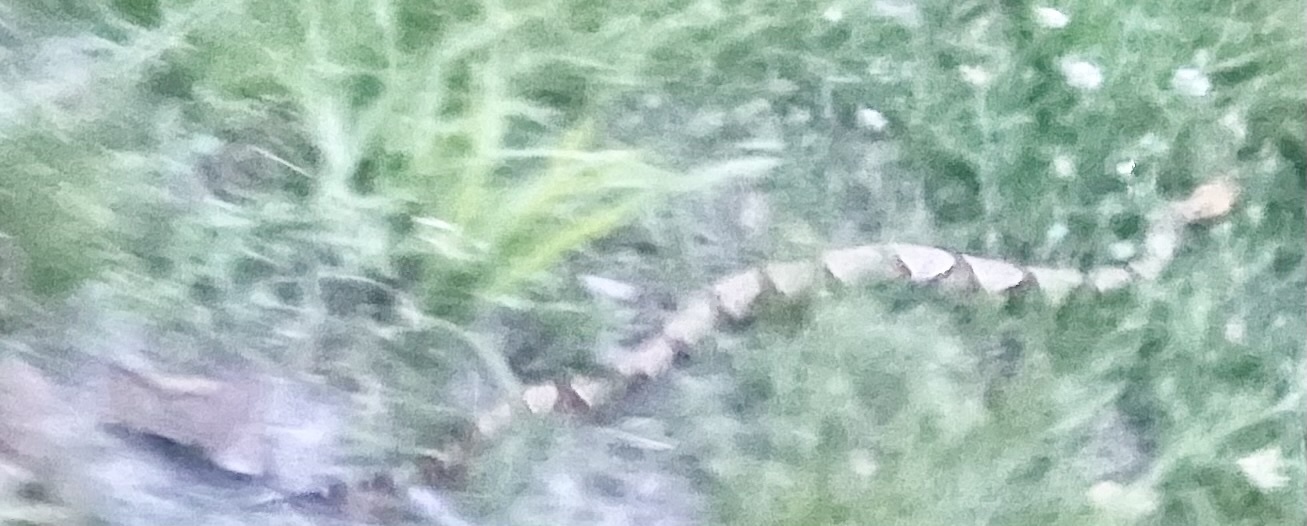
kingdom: Animalia
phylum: Chordata
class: Squamata
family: Viperidae
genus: Agkistrodon
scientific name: Agkistrodon contortrix
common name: Northern copperhead
